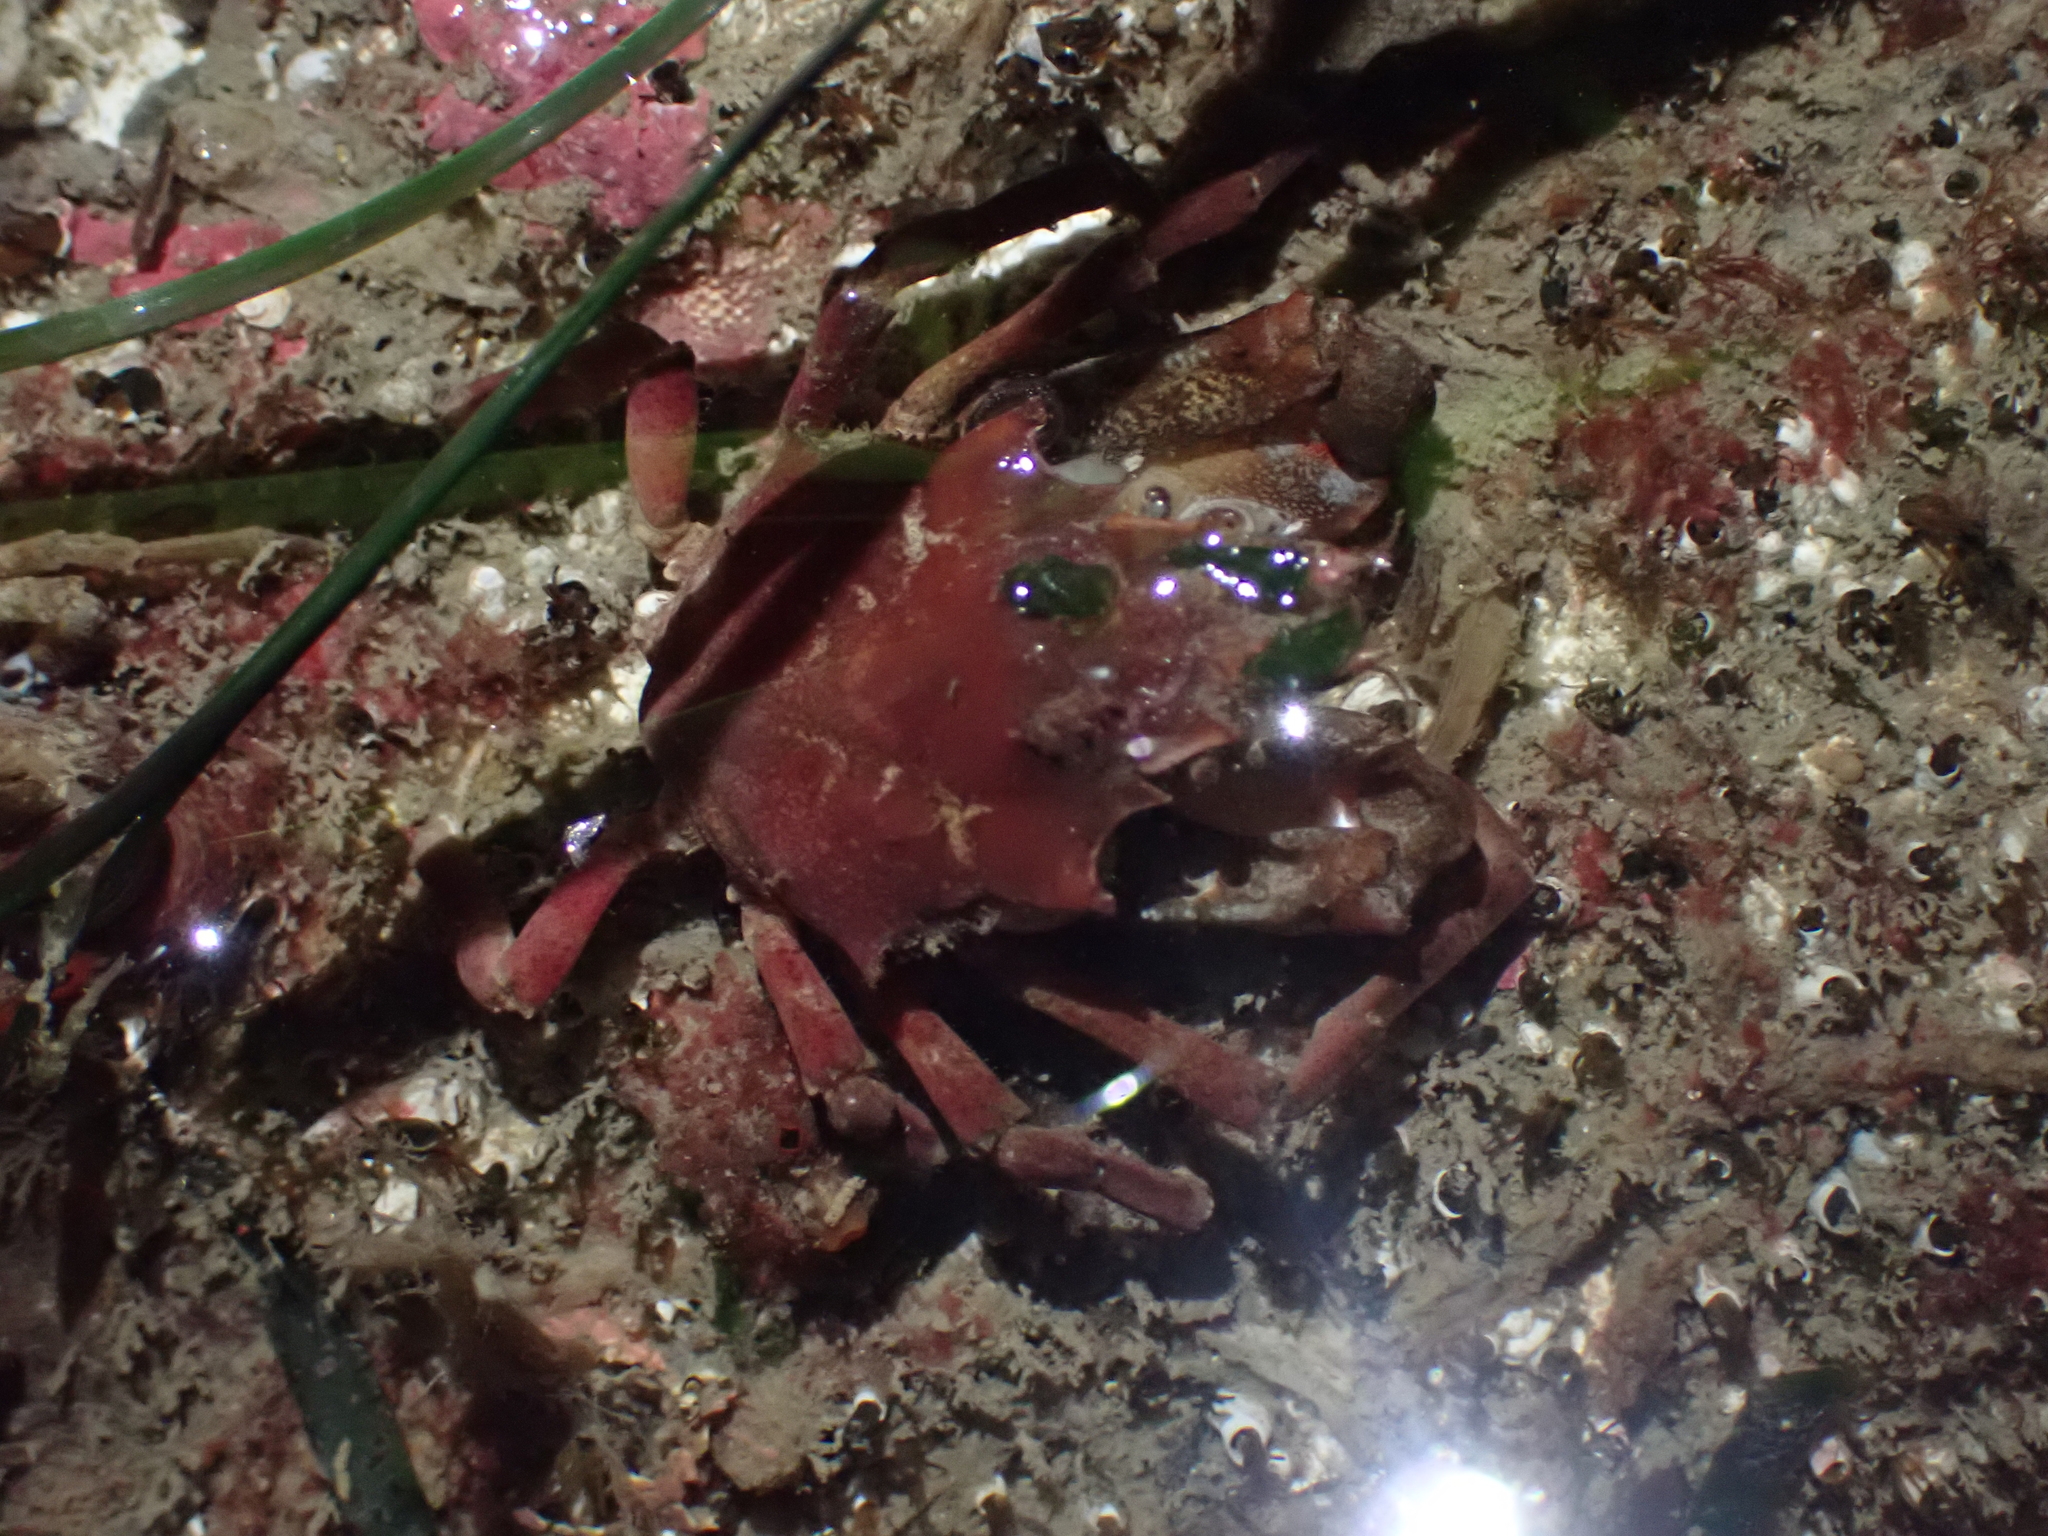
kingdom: Animalia
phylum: Arthropoda
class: Malacostraca
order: Decapoda
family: Epialtidae
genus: Pugettia
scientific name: Pugettia gracilis
